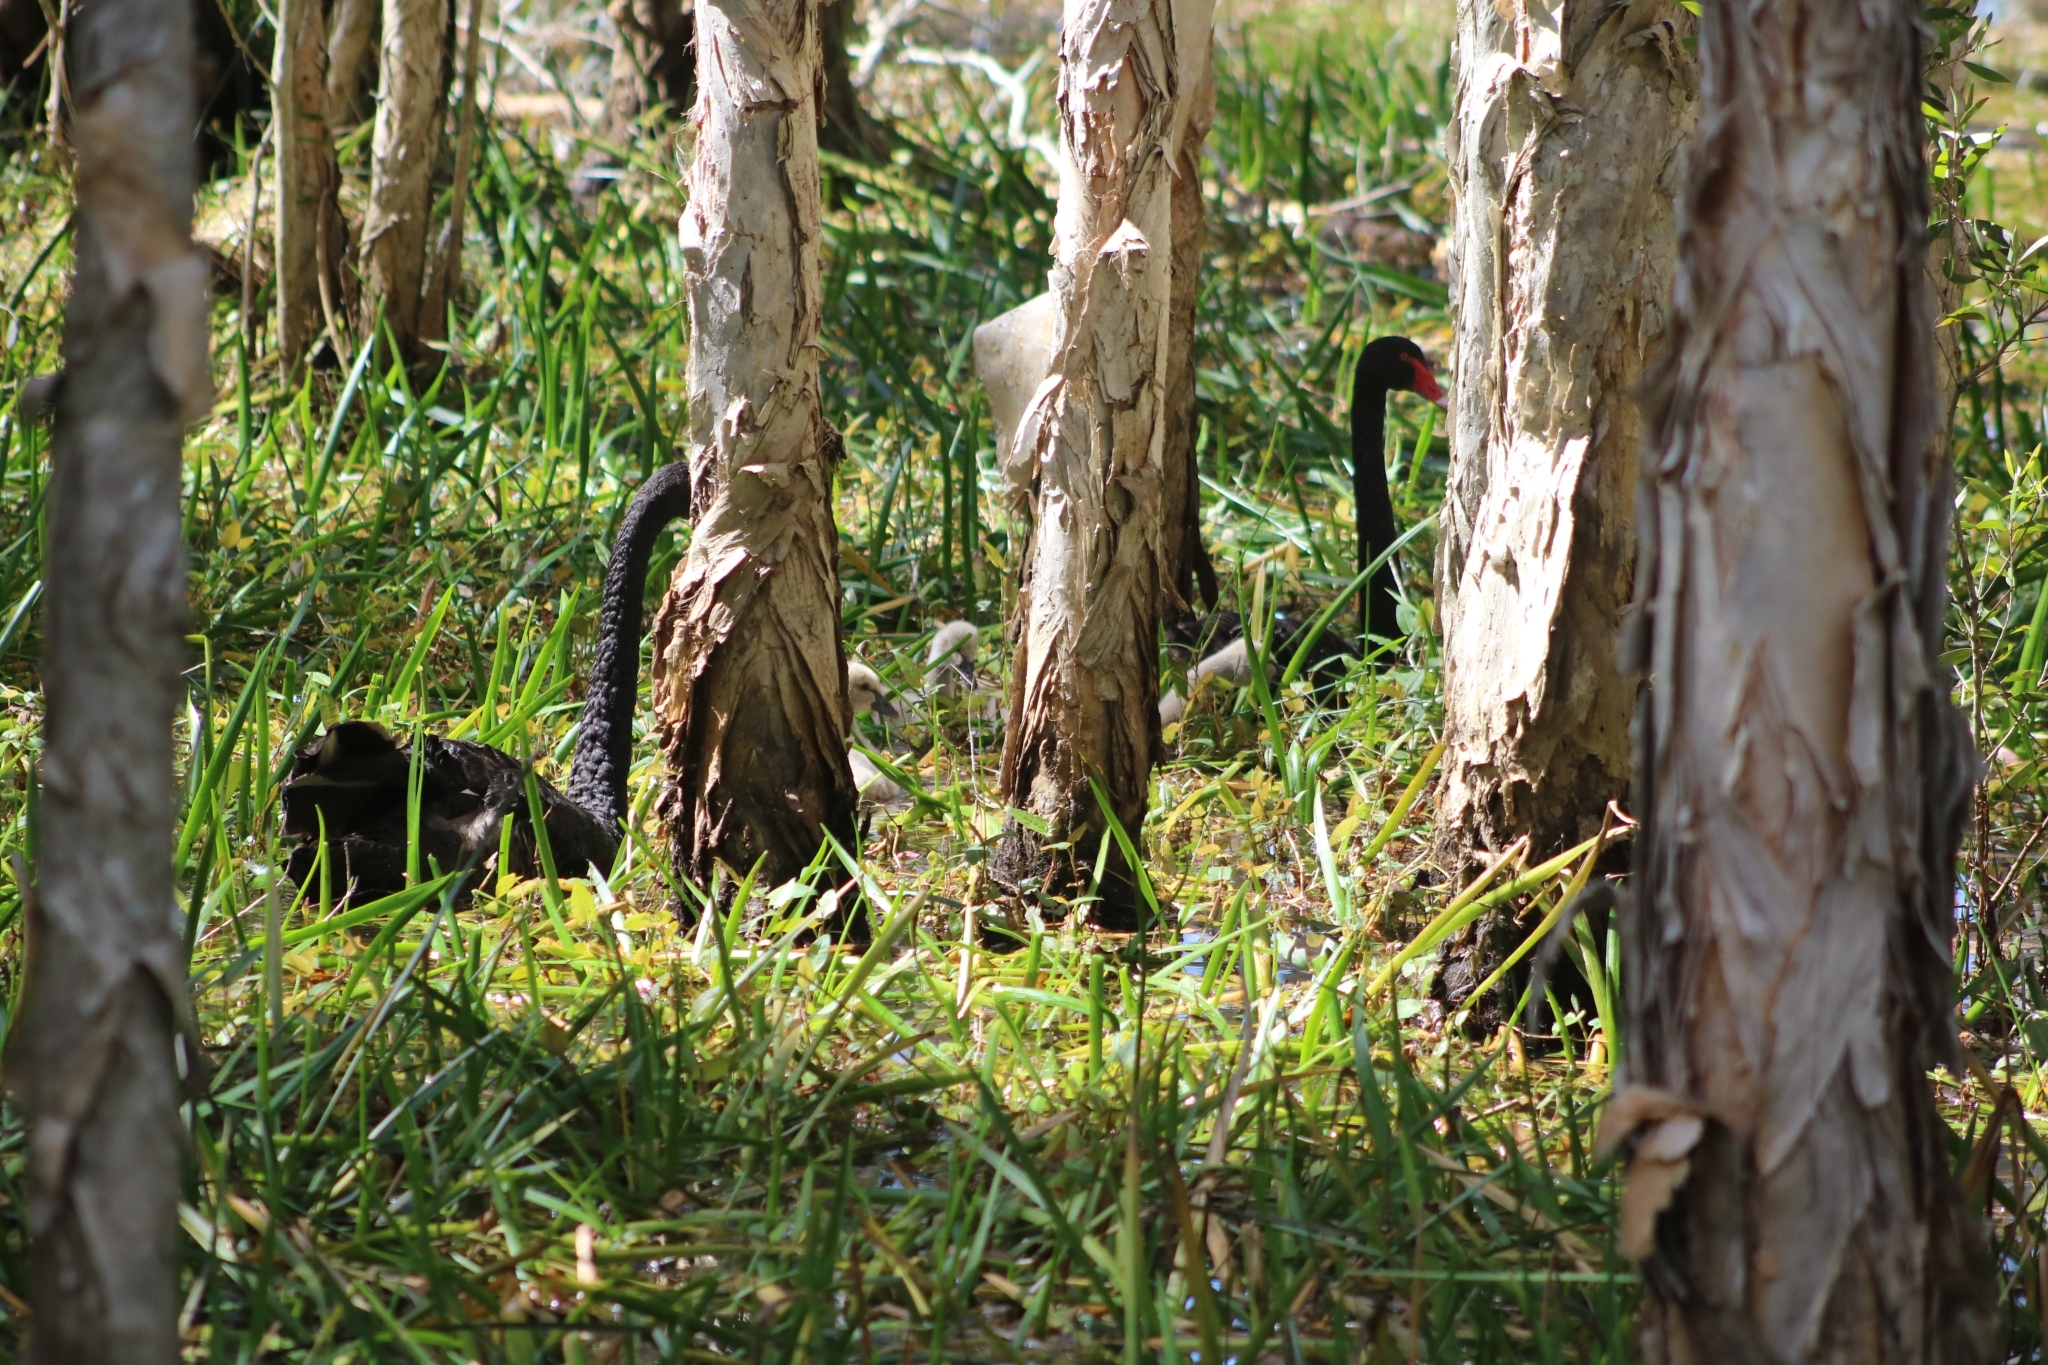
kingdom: Animalia
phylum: Chordata
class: Aves
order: Anseriformes
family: Anatidae
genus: Cygnus
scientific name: Cygnus atratus
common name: Black swan
